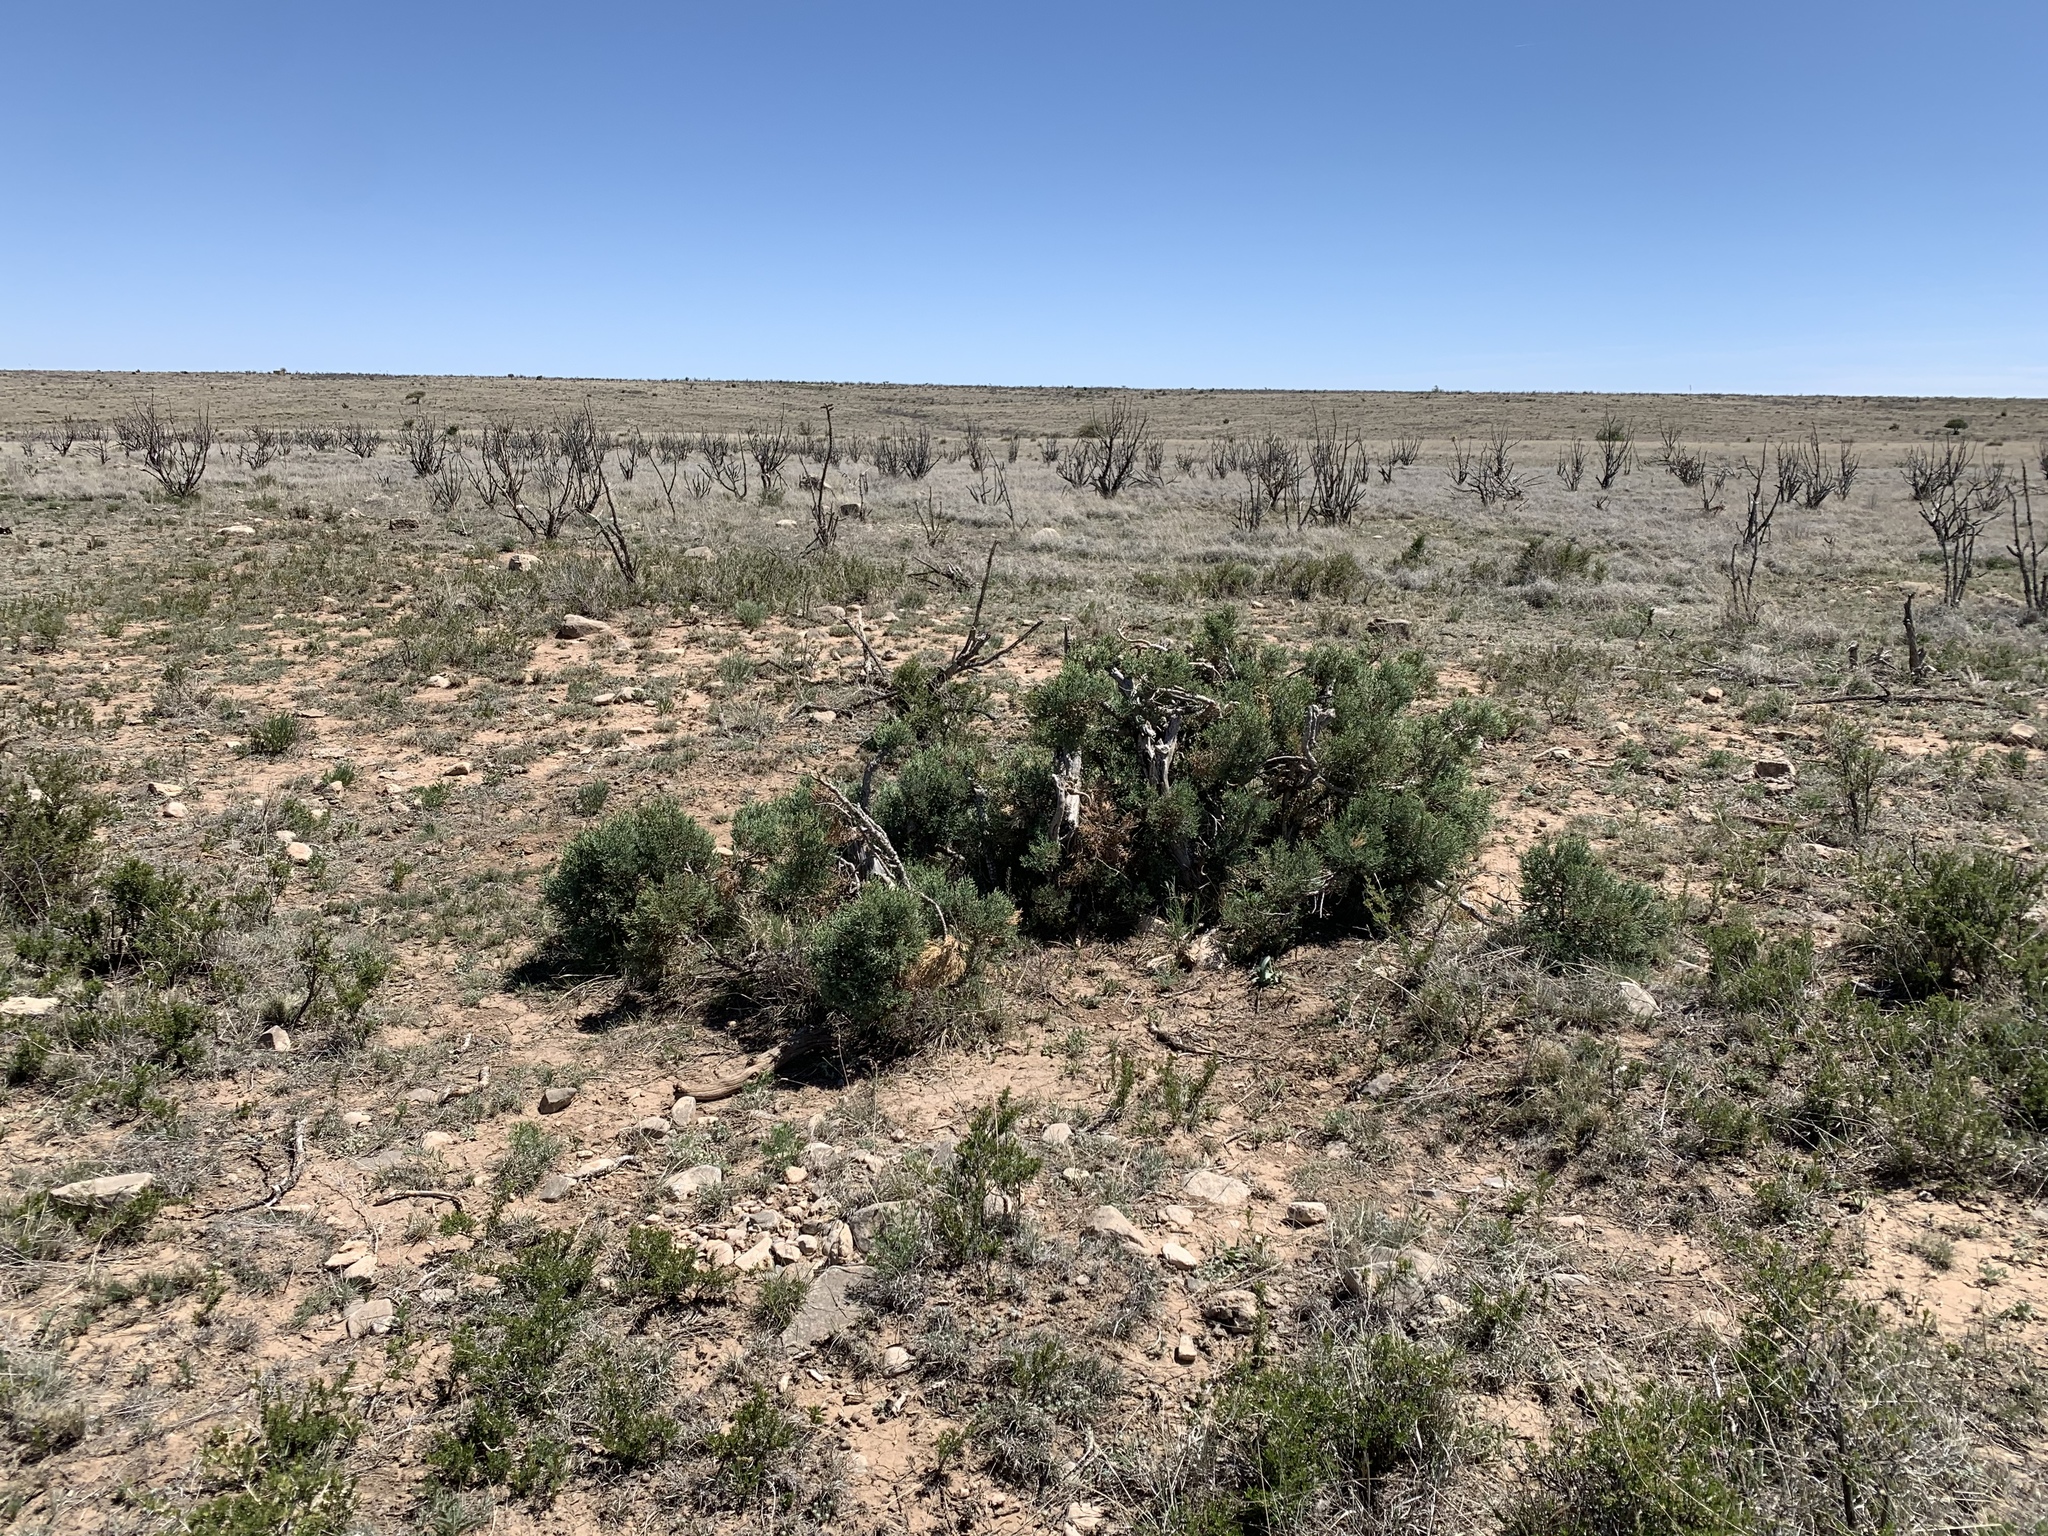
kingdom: Plantae
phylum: Tracheophyta
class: Pinopsida
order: Pinales
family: Cupressaceae
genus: Juniperus
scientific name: Juniperus monosperma
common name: One-seed juniper
